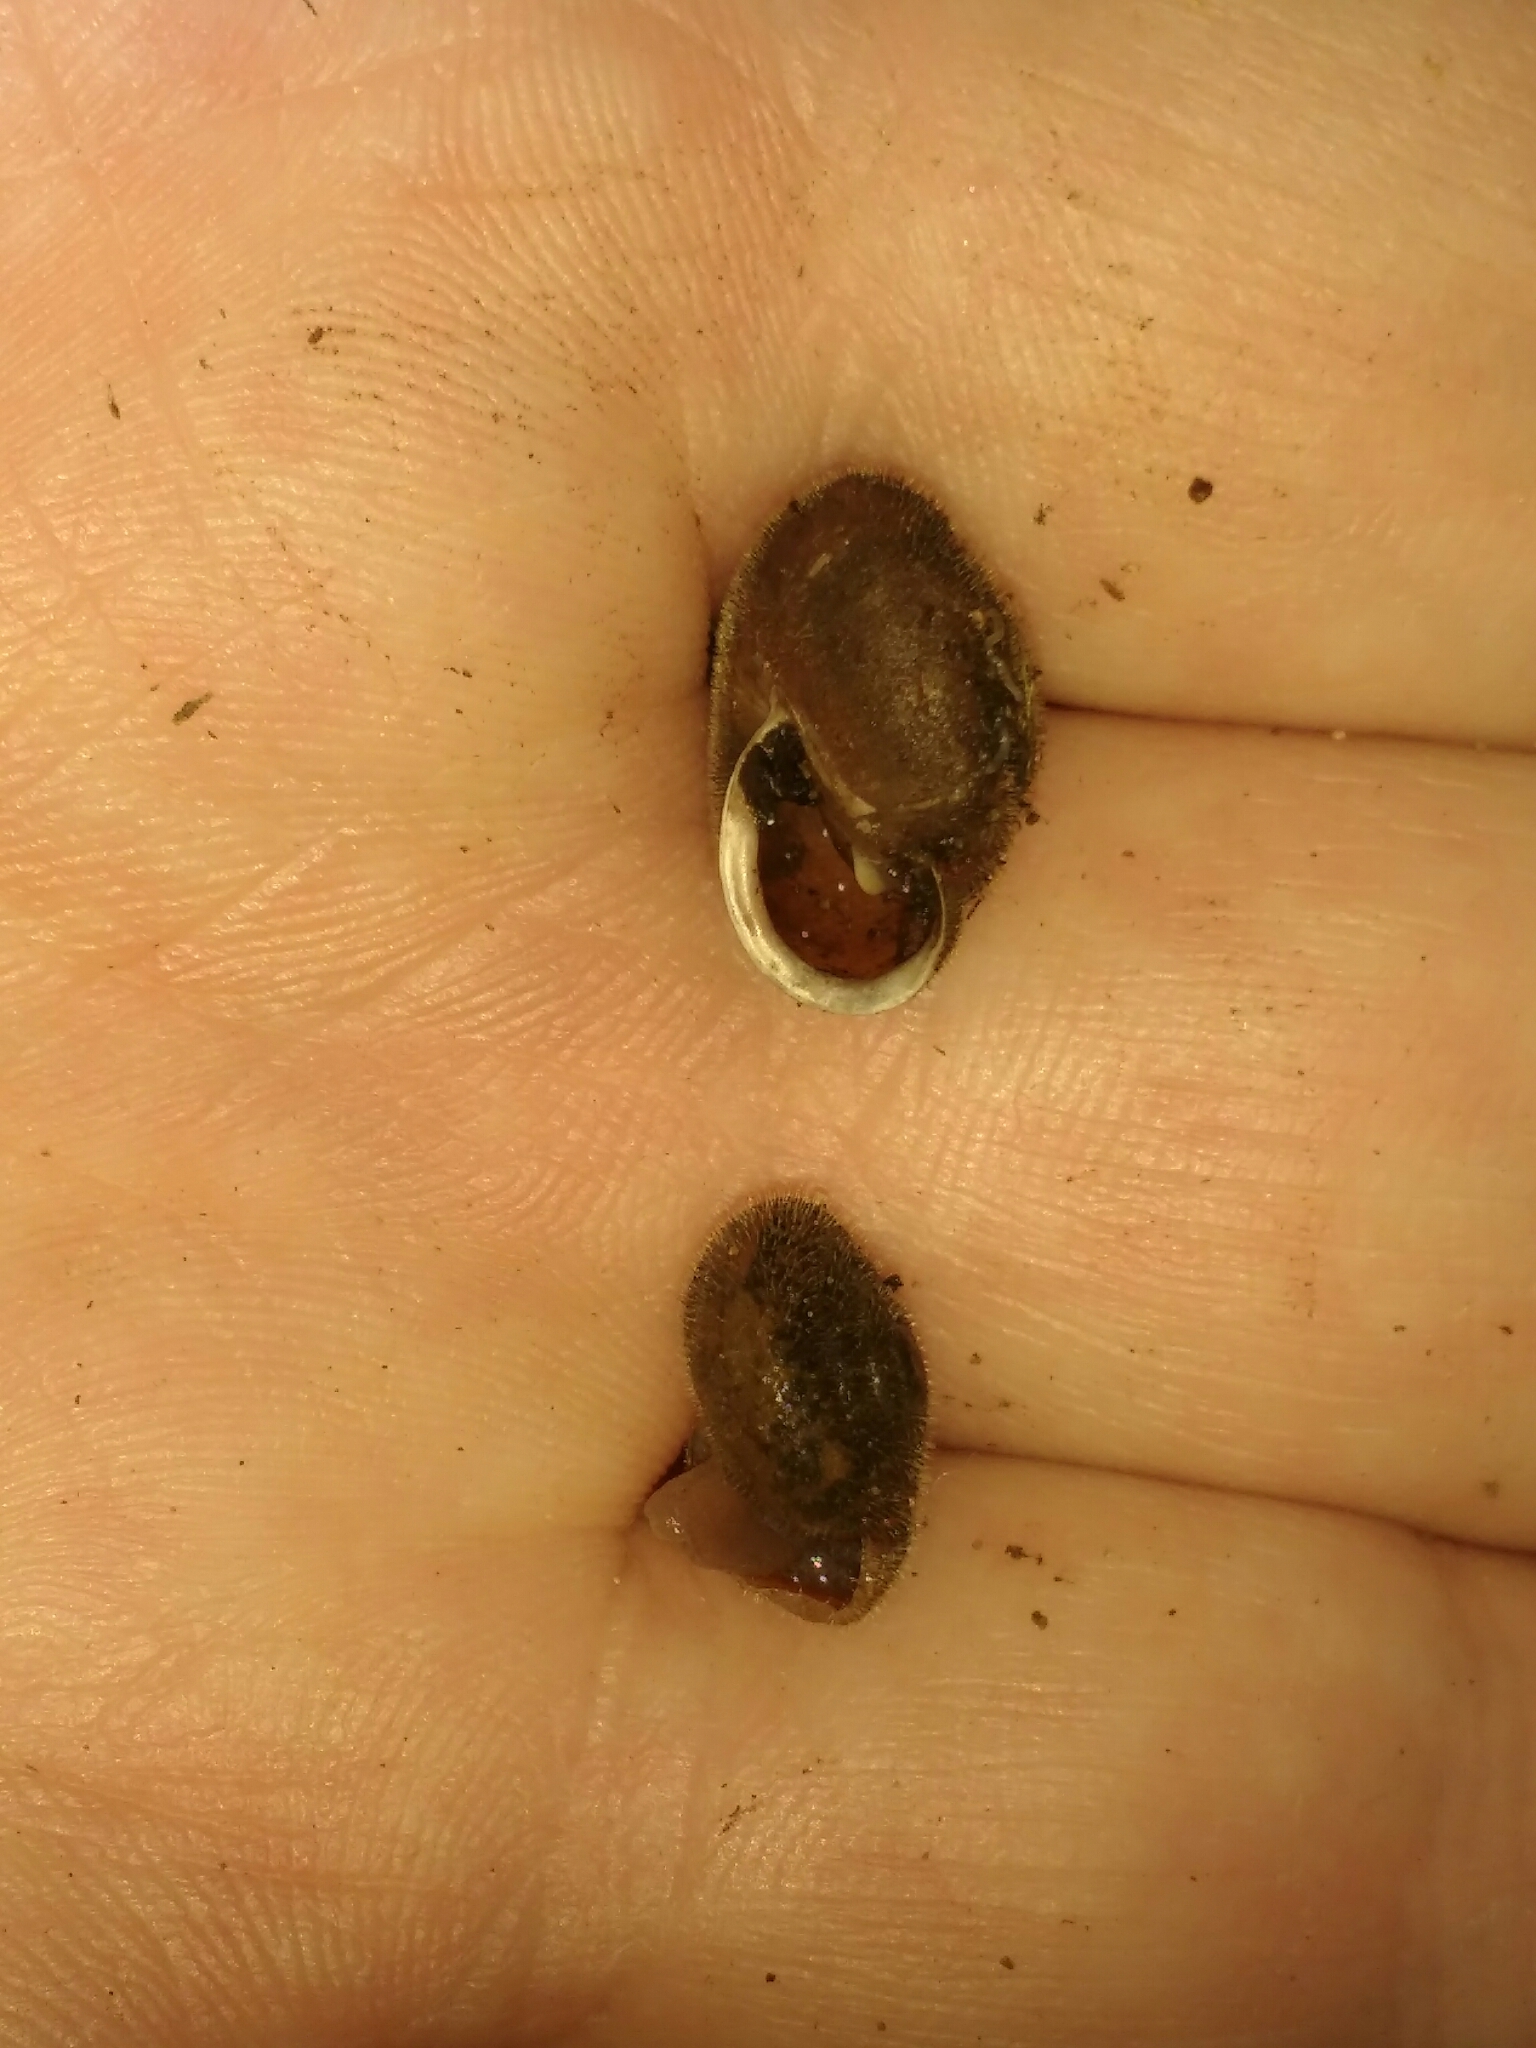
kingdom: Animalia
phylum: Mollusca
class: Gastropoda
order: Stylommatophora
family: Polygyridae
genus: Vespericola
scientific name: Vespericola armiger
